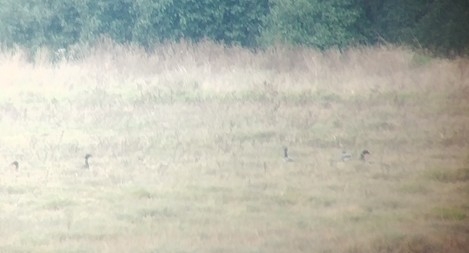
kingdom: Animalia
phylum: Chordata
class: Aves
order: Anseriformes
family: Anatidae
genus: Branta
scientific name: Branta bernicla
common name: Brant goose
